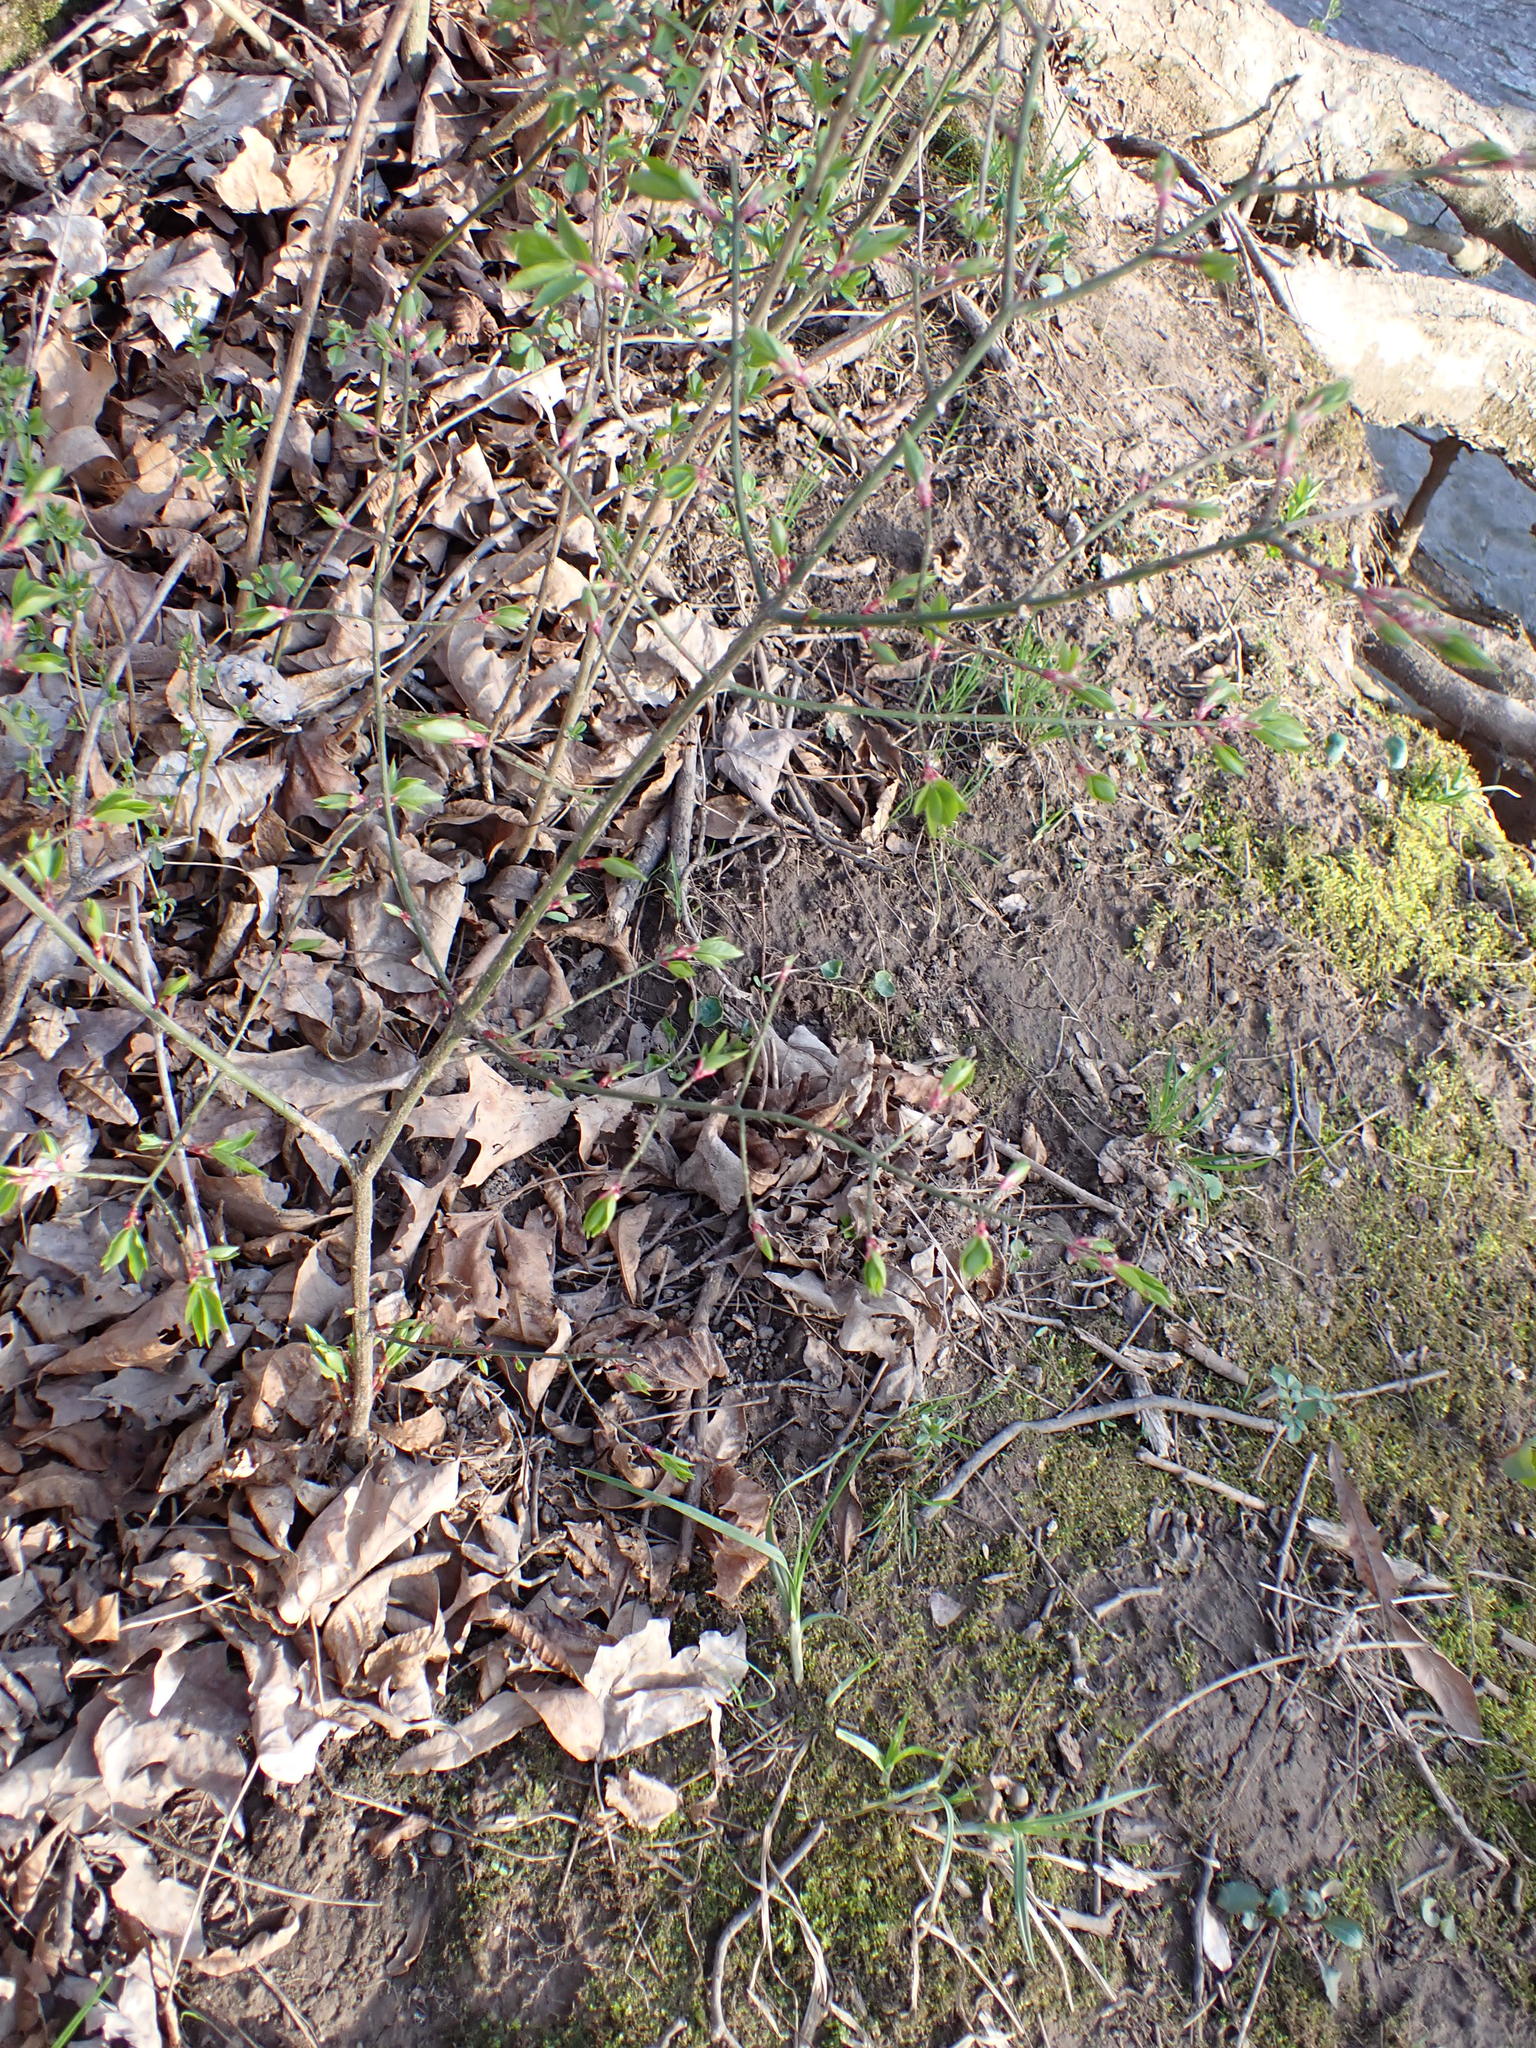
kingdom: Plantae
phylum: Tracheophyta
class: Magnoliopsida
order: Celastrales
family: Celastraceae
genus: Euonymus
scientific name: Euonymus alatus
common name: Winged euonymus
